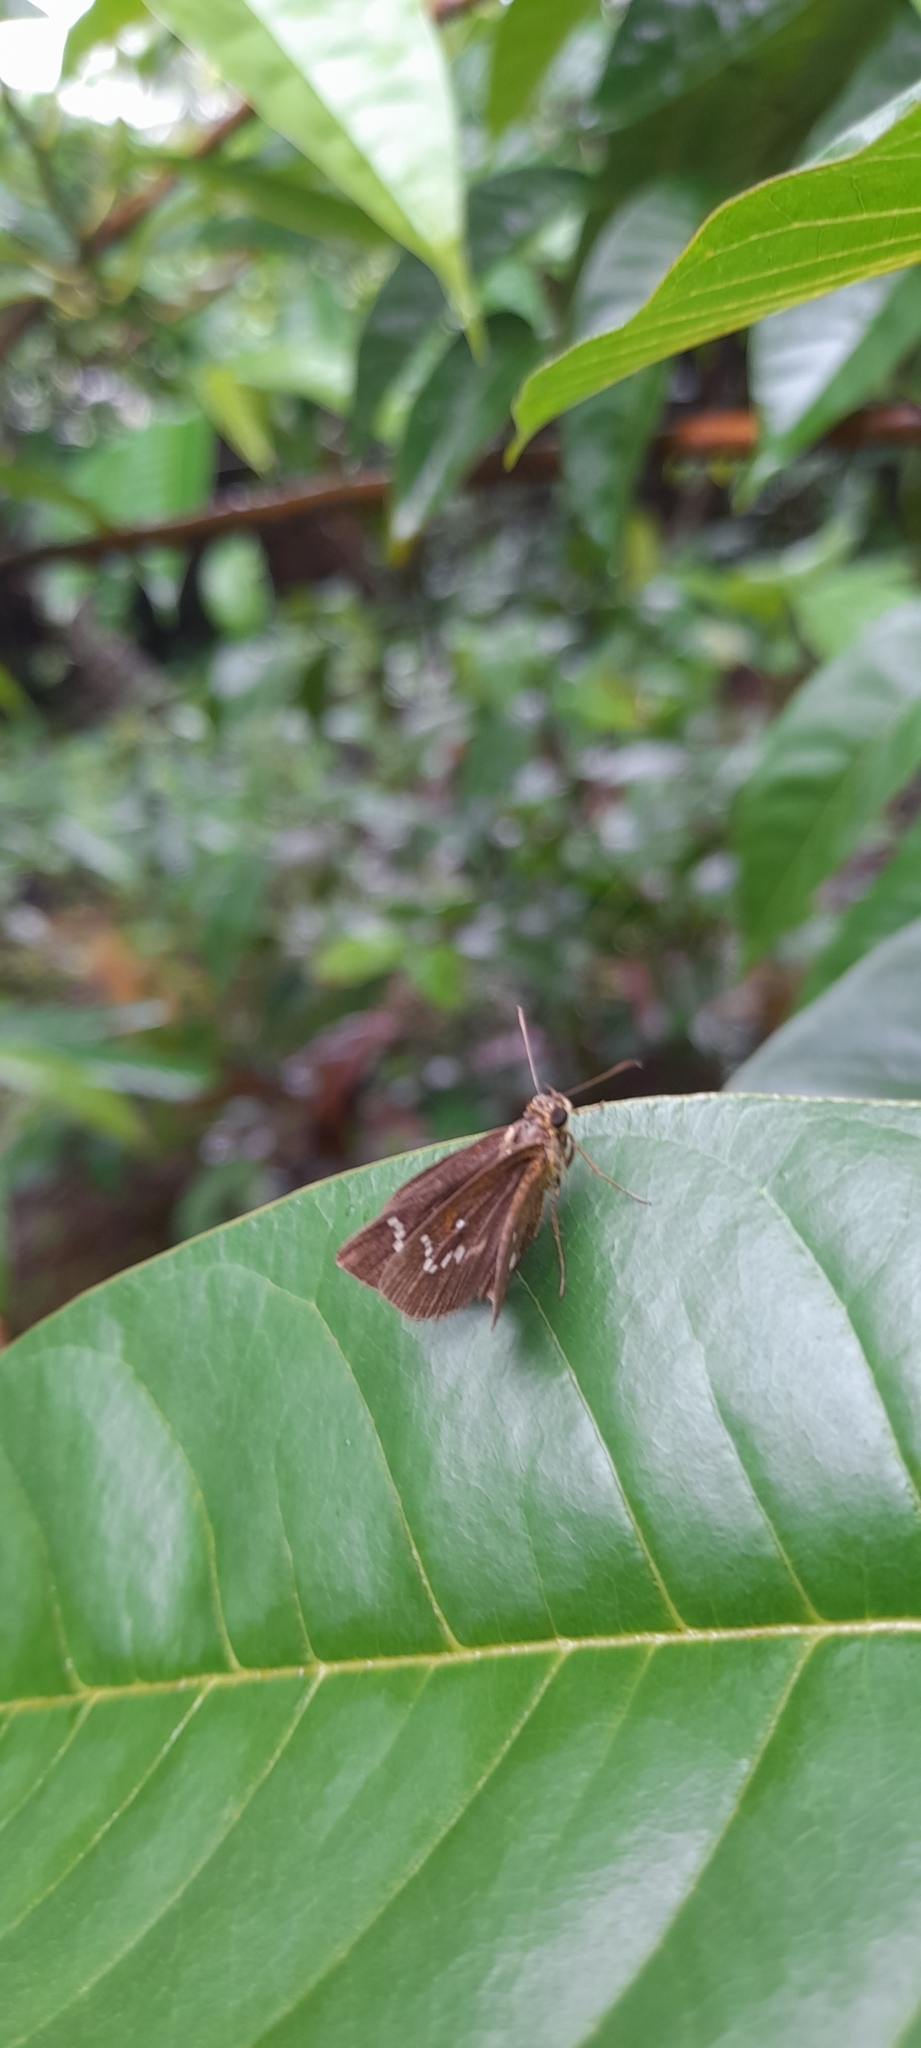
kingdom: Animalia
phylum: Arthropoda
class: Insecta
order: Lepidoptera
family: Hesperiidae
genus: Iambrix
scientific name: Iambrix salsala
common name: Chestnut bob
